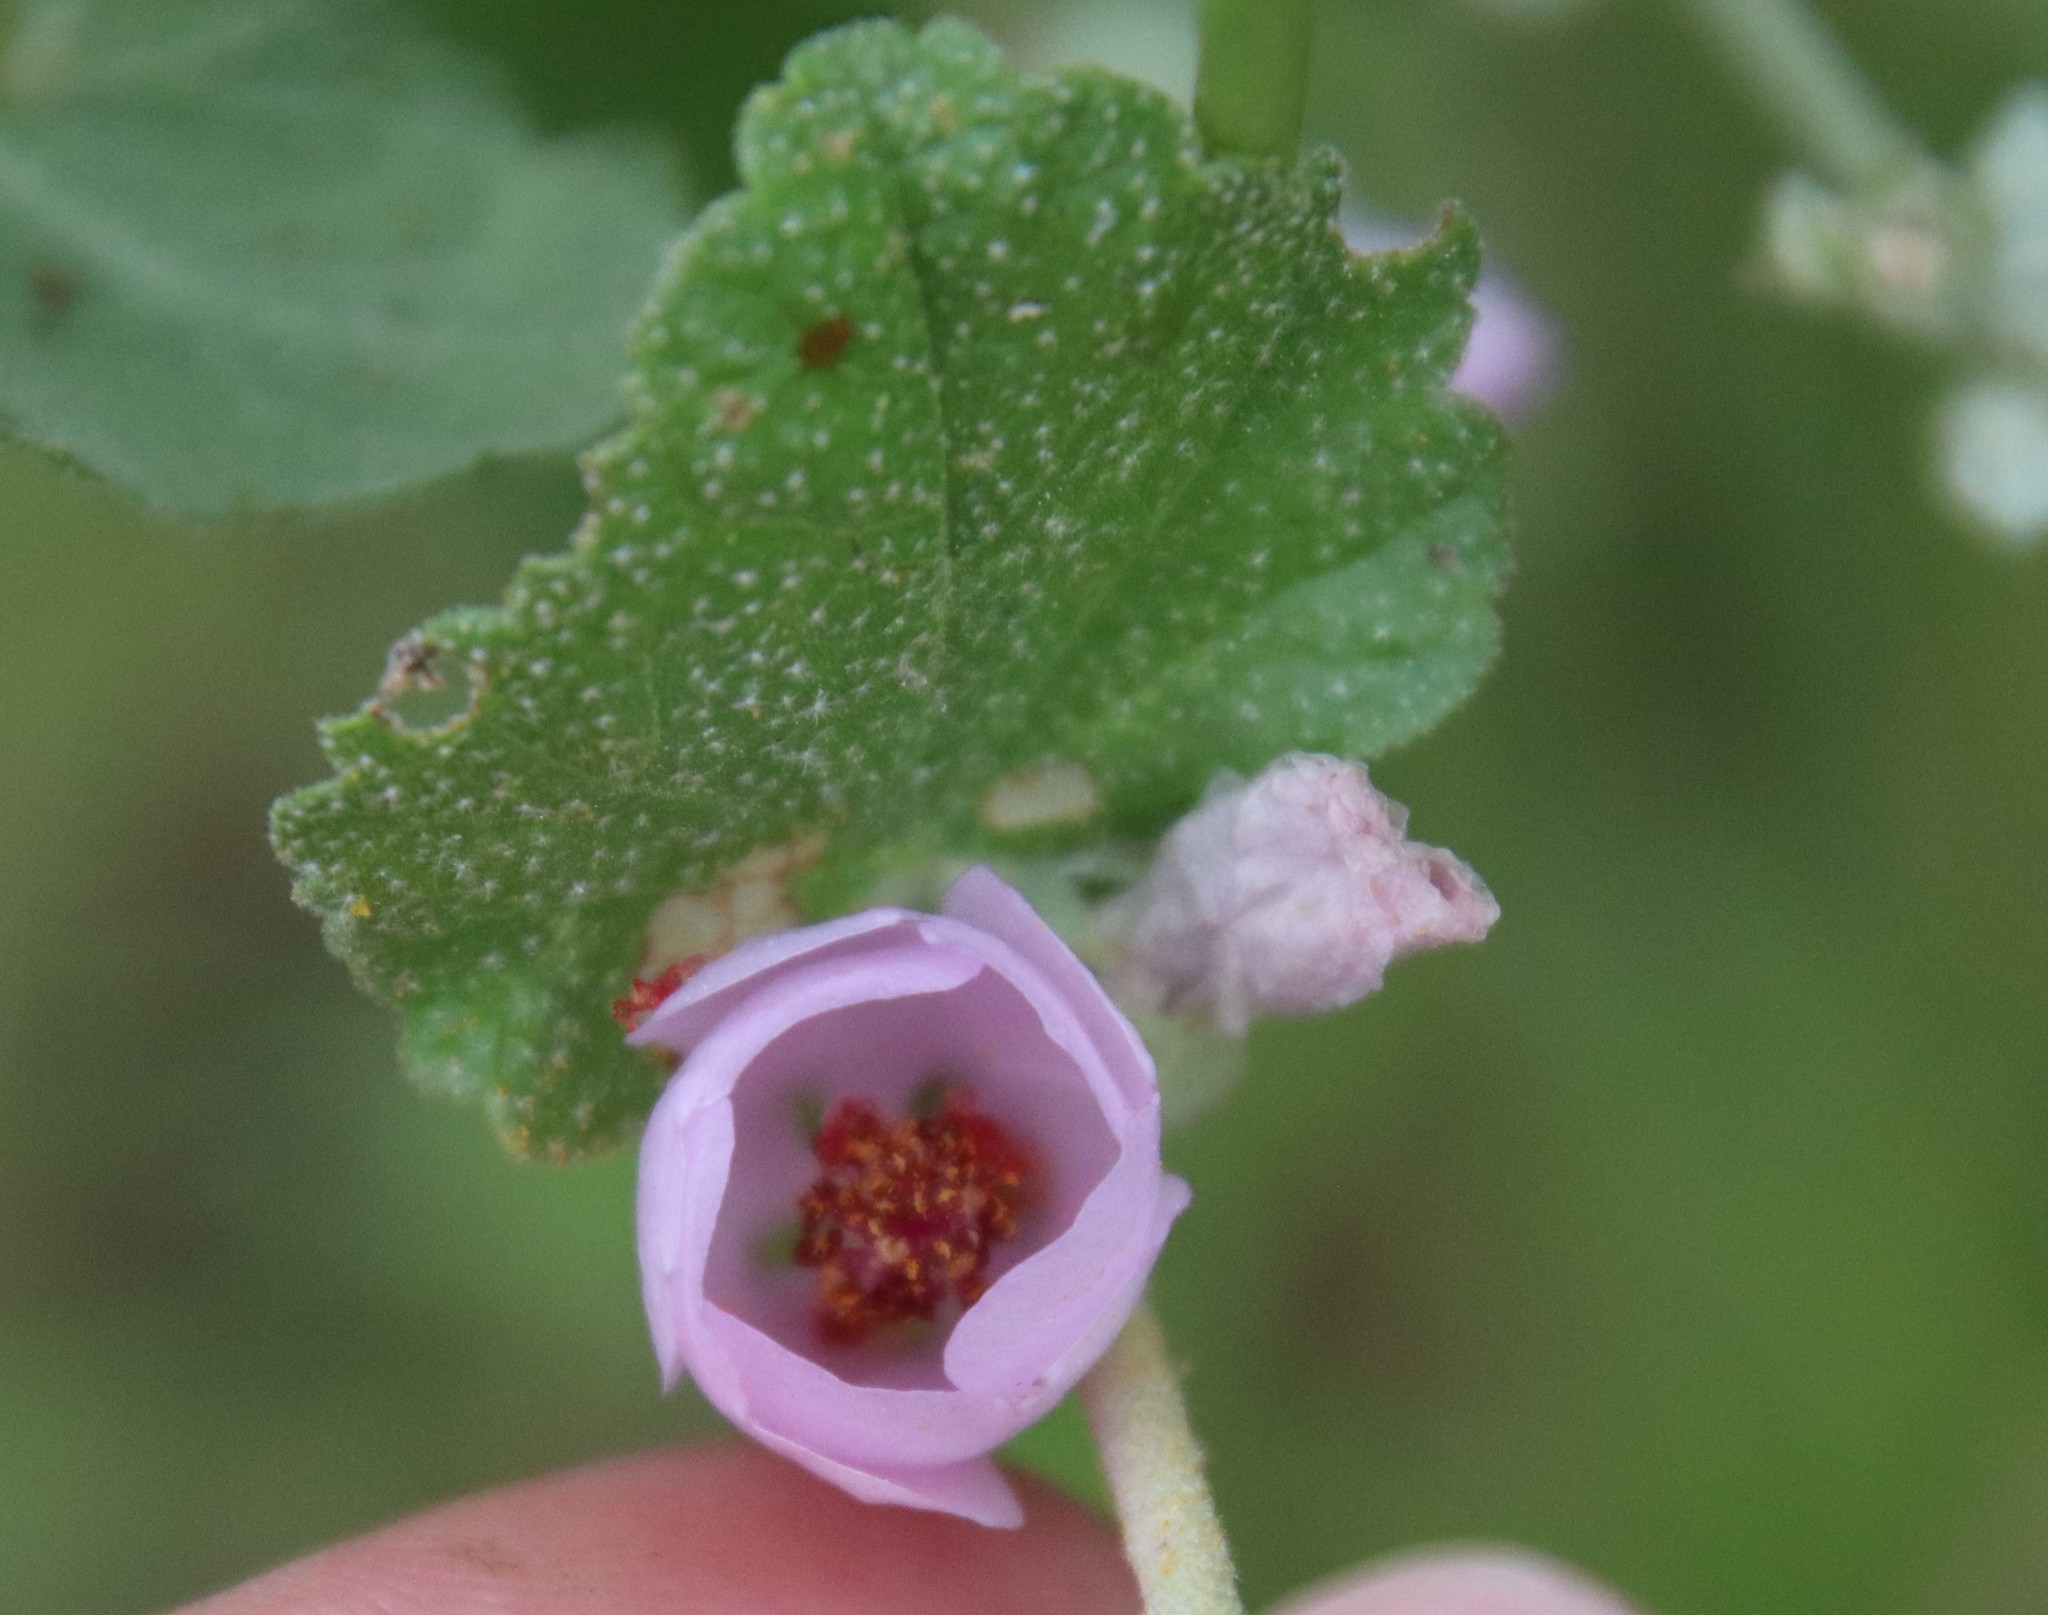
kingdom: Plantae
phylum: Tracheophyta
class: Magnoliopsida
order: Malvales
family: Malvaceae
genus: Malacothamnus
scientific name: Malacothamnus fasciculatus
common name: Sant cruz island bush-mallow
